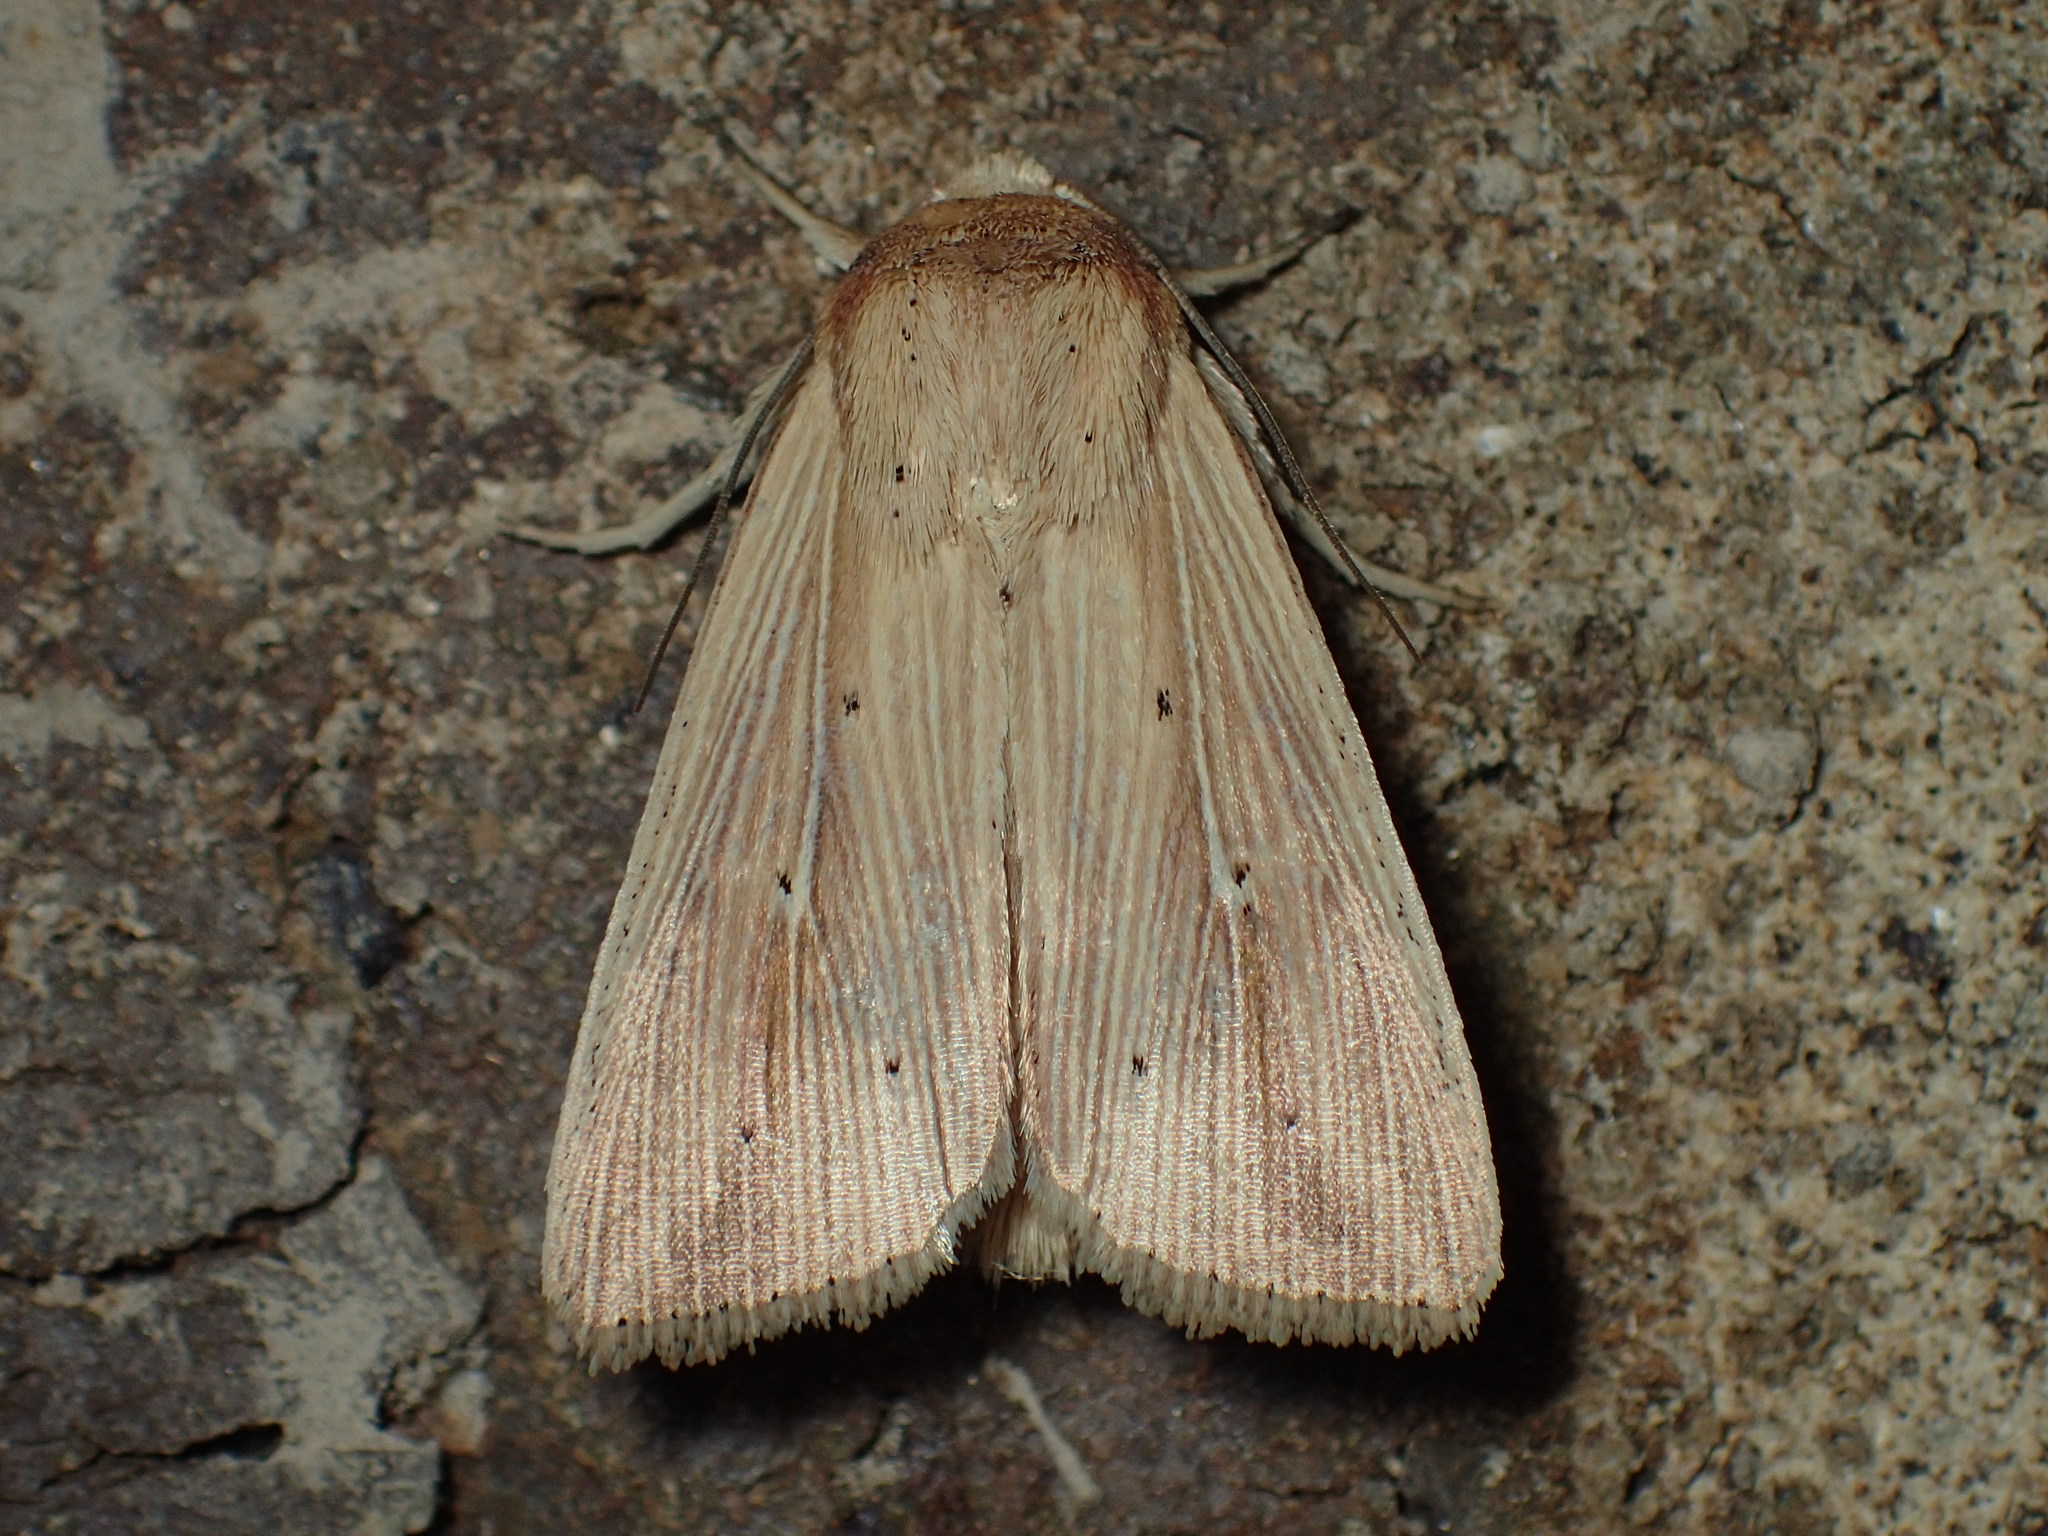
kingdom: Animalia
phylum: Arthropoda
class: Insecta
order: Lepidoptera
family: Noctuidae
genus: Leucania
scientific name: Leucania adjuta
